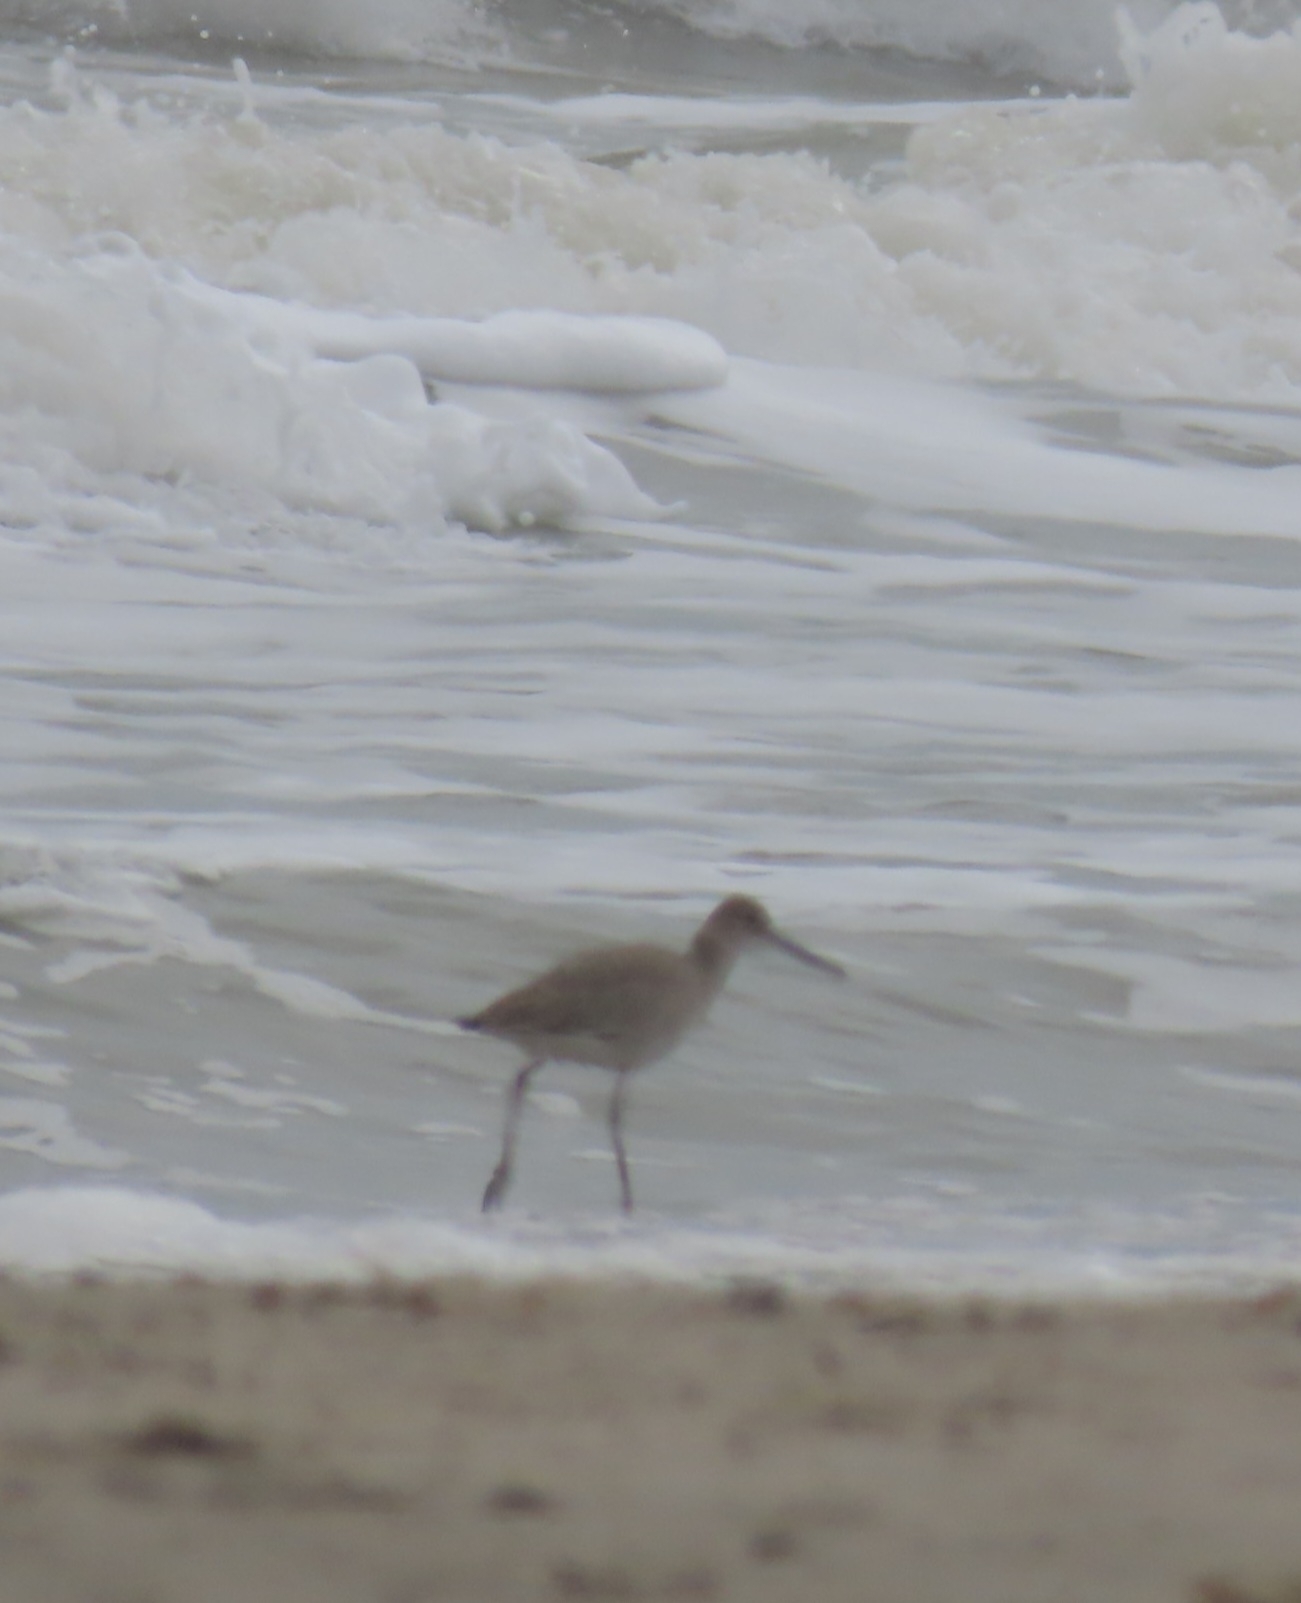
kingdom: Animalia
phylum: Chordata
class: Aves
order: Charadriiformes
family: Scolopacidae
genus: Tringa
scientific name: Tringa semipalmata
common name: Willet
